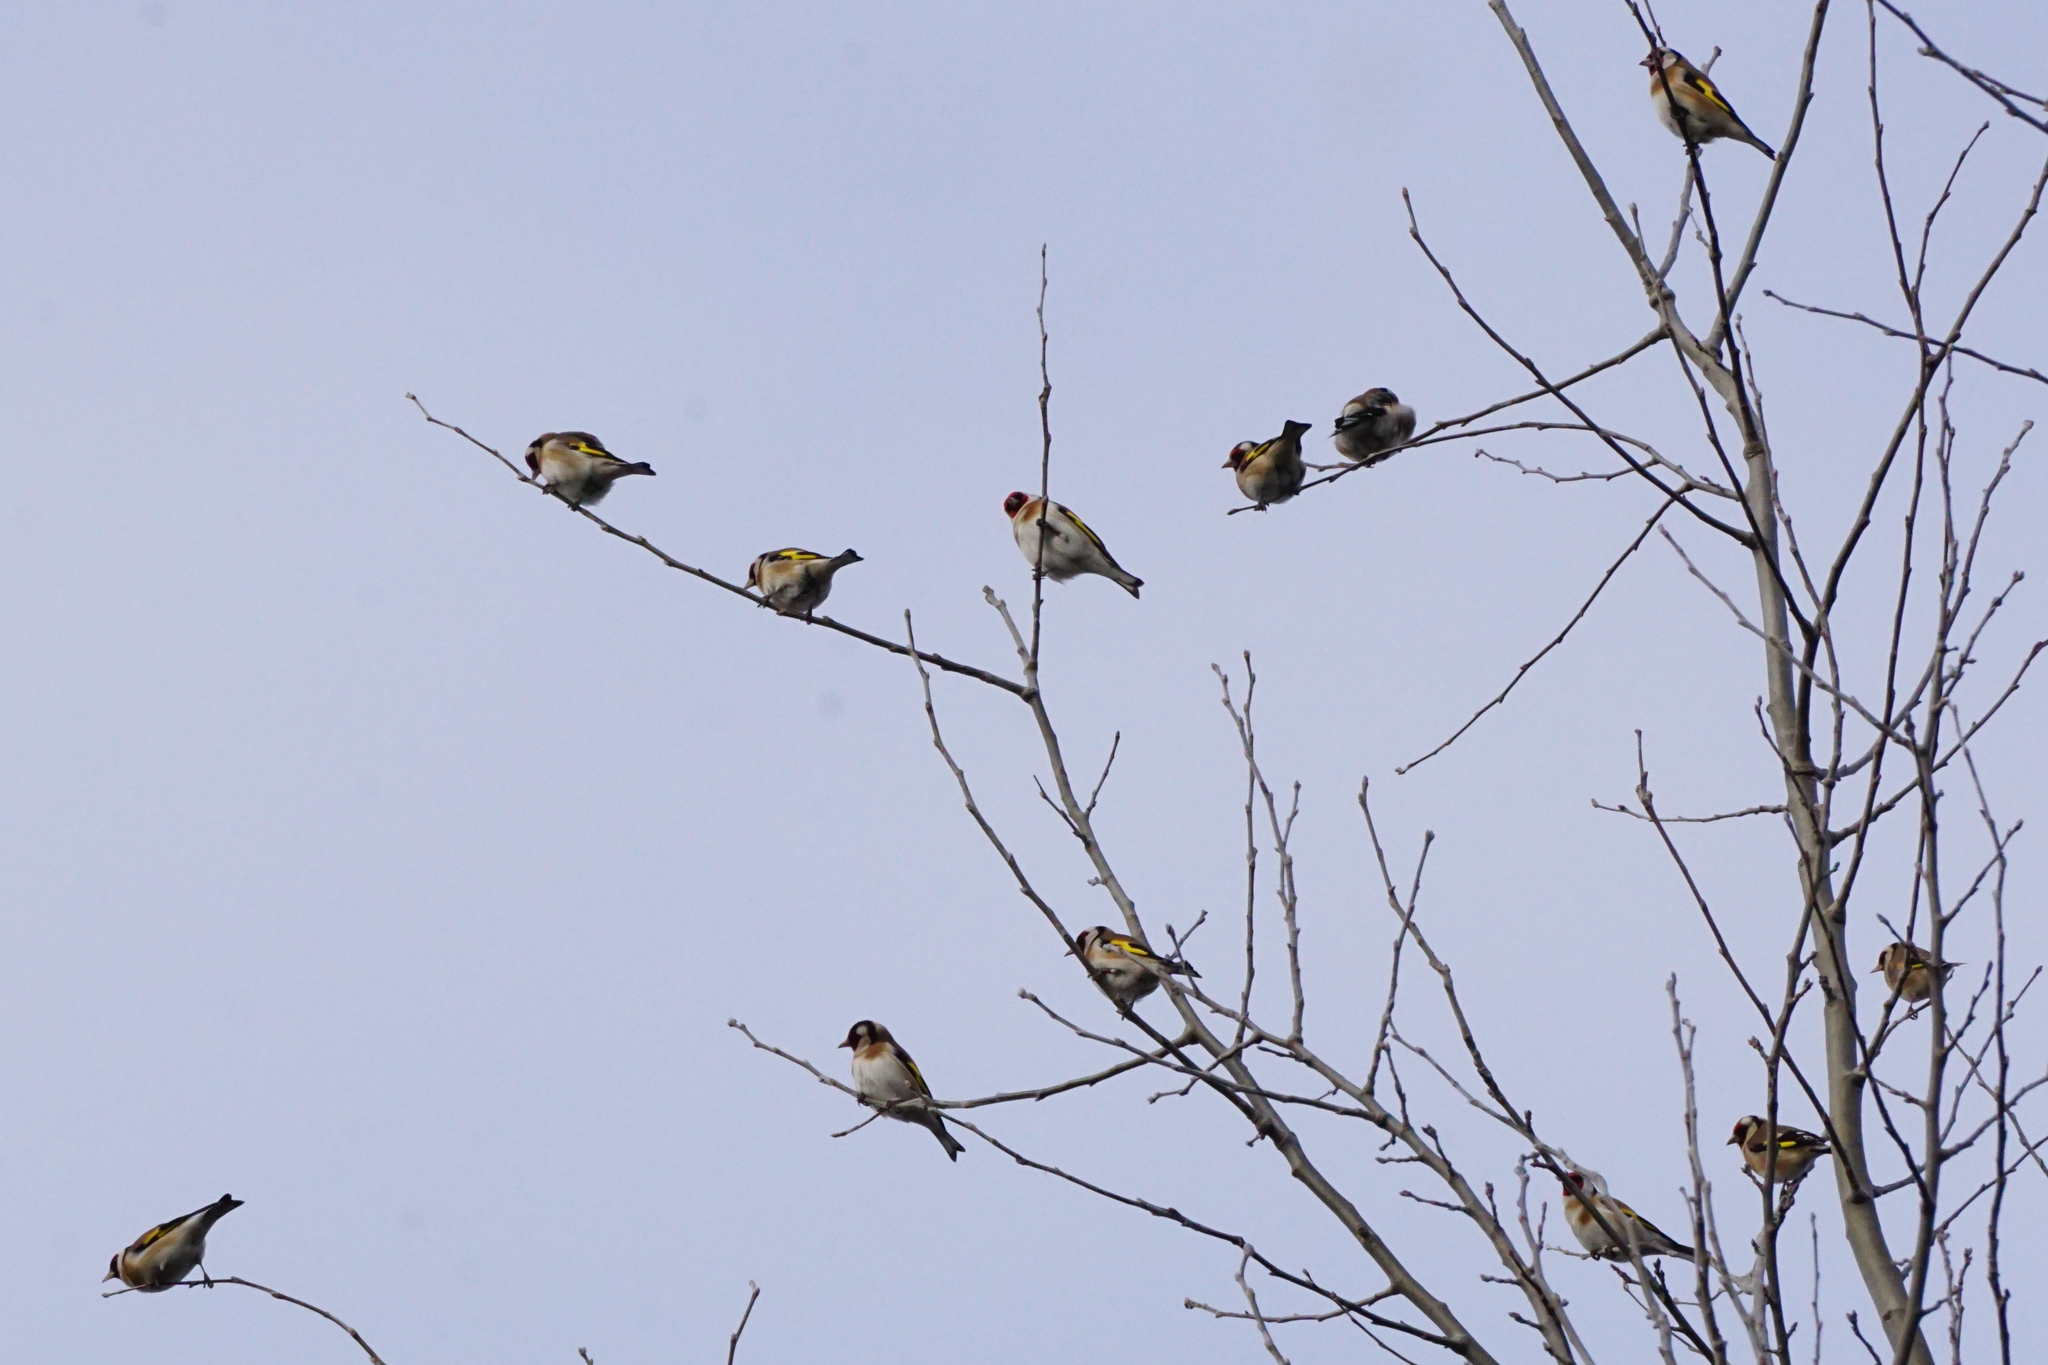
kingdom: Animalia
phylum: Chordata
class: Aves
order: Passeriformes
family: Fringillidae
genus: Carduelis
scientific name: Carduelis carduelis
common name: European goldfinch
